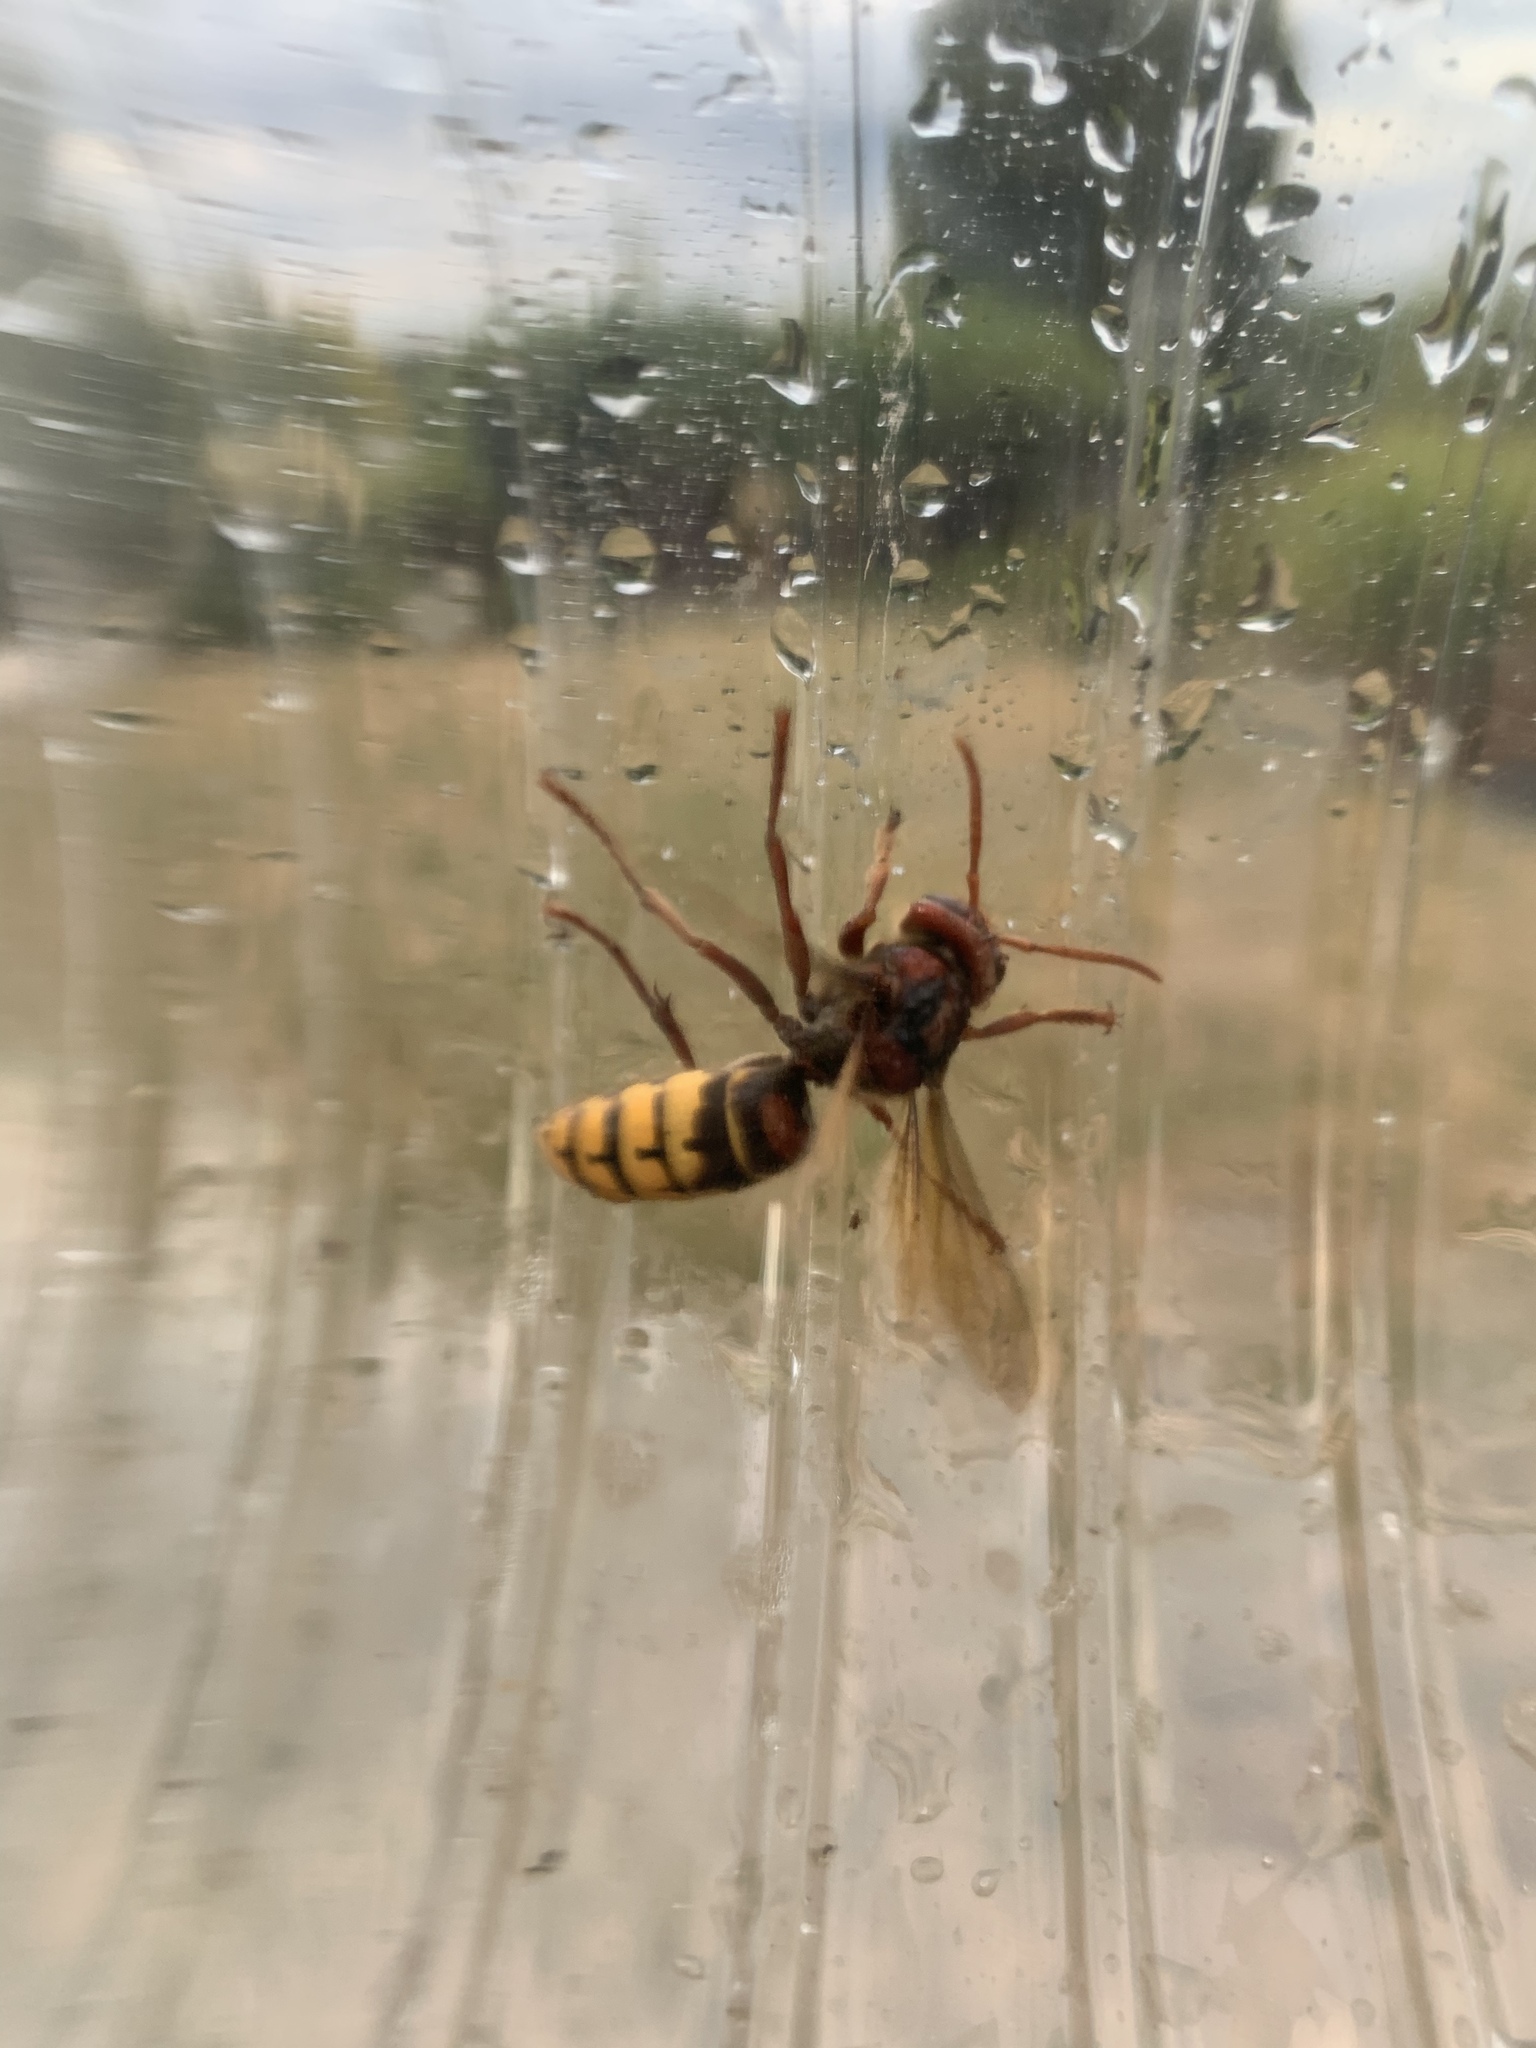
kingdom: Animalia
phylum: Arthropoda
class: Insecta
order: Hymenoptera
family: Vespidae
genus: Vespa
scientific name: Vespa crabro
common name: Hornet
